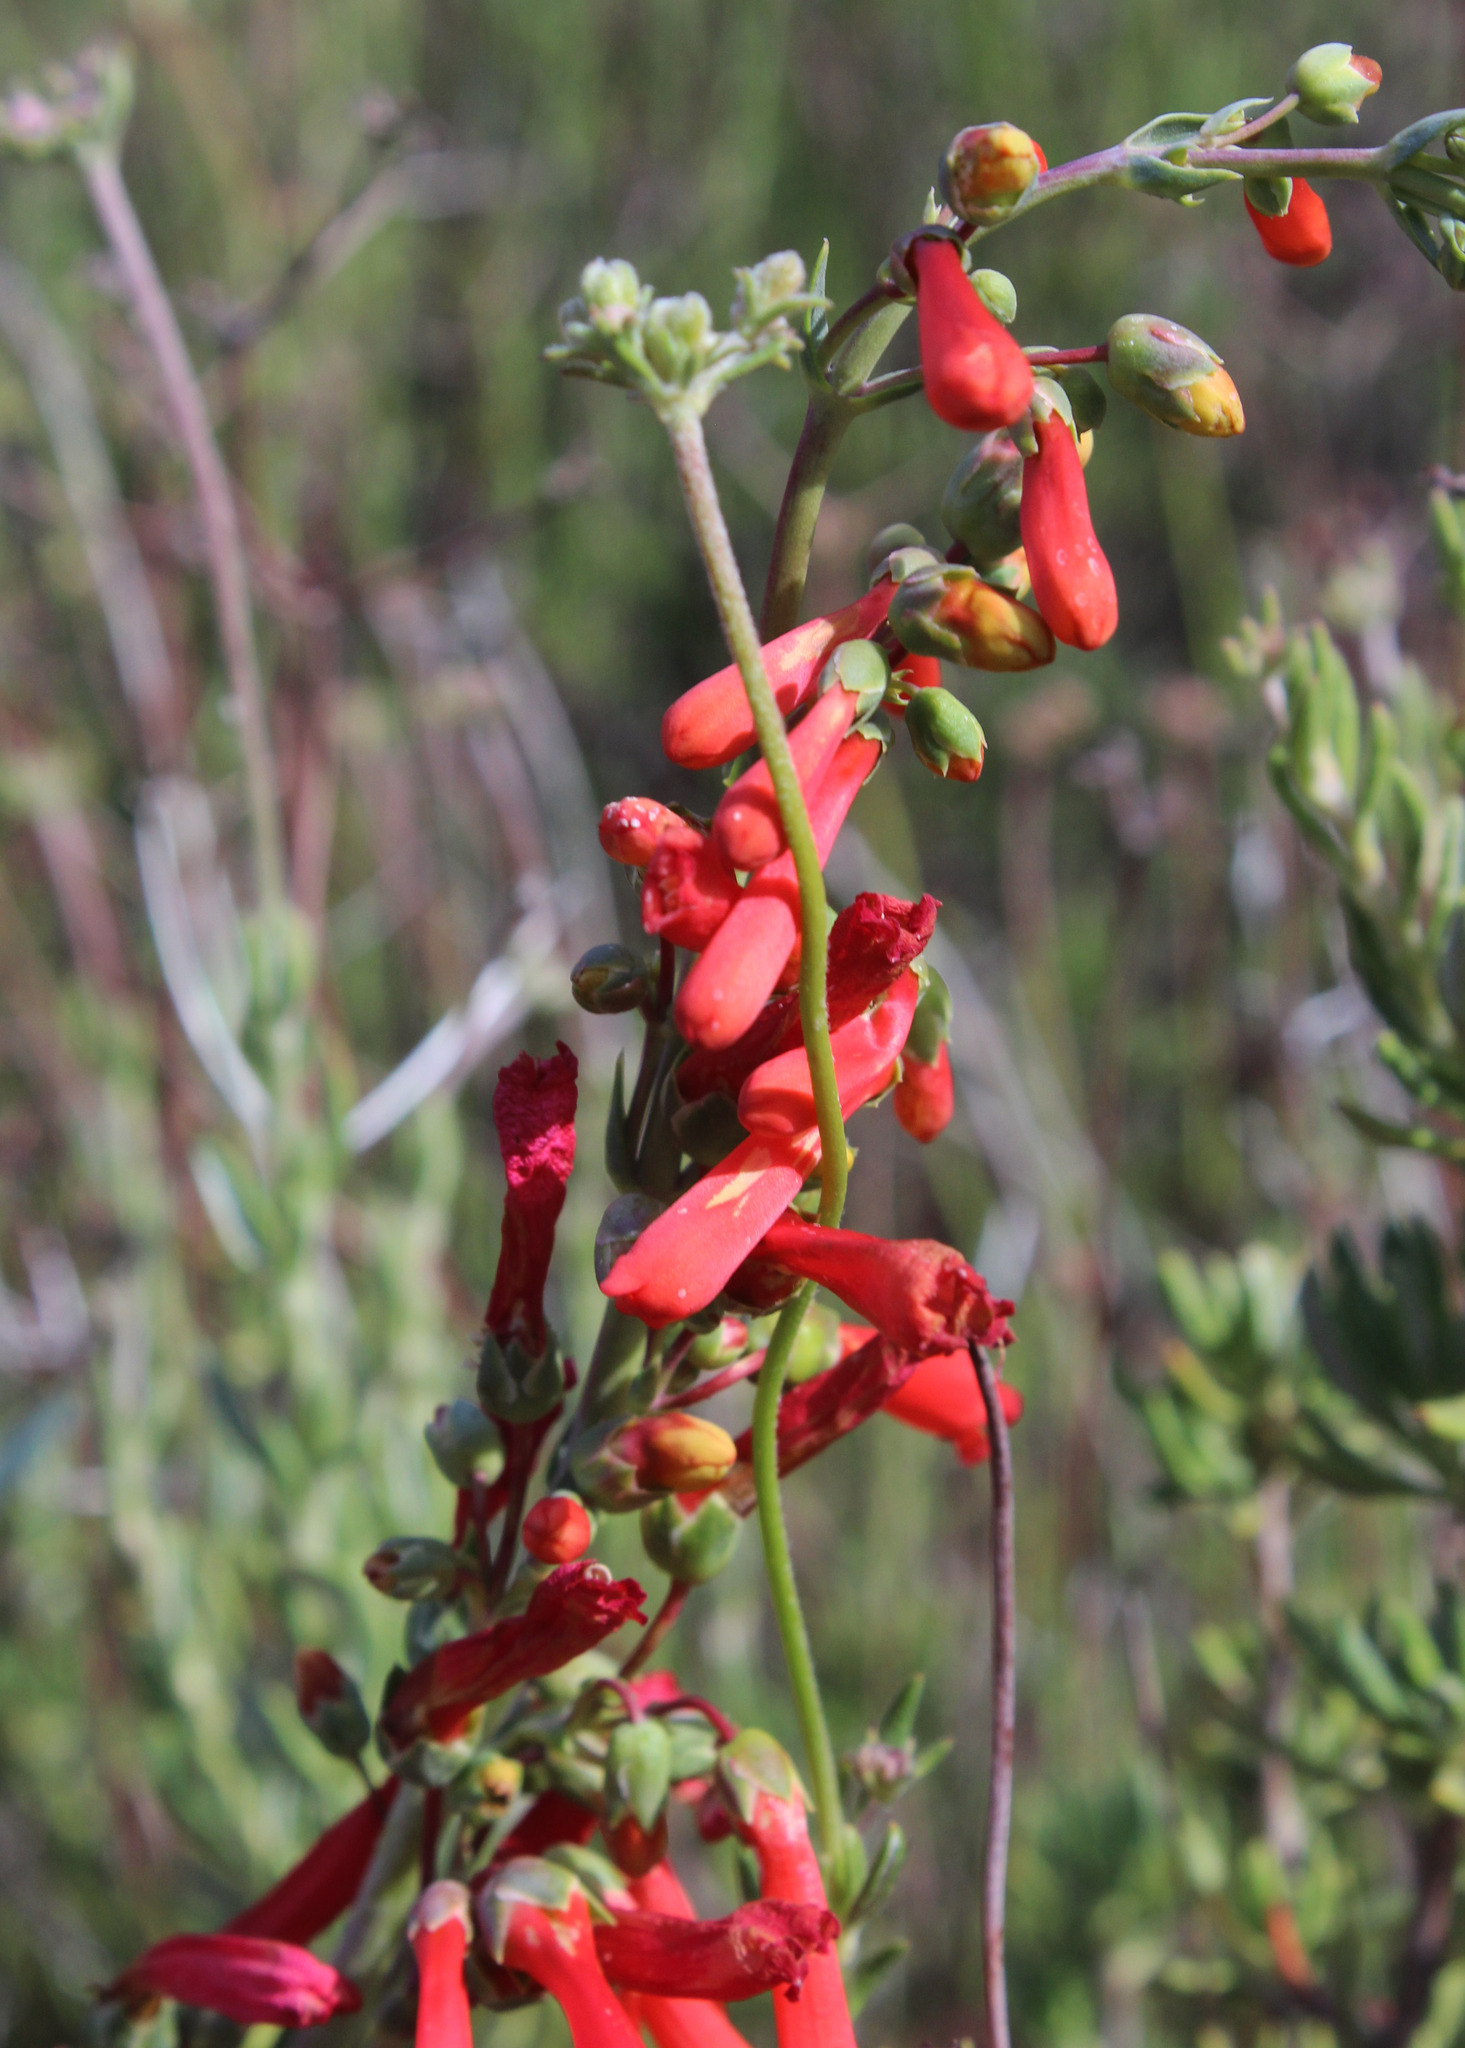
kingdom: Plantae
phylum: Tracheophyta
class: Magnoliopsida
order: Lamiales
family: Plantaginaceae
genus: Penstemon
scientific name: Penstemon centranthifolius
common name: Scarlet bugler
